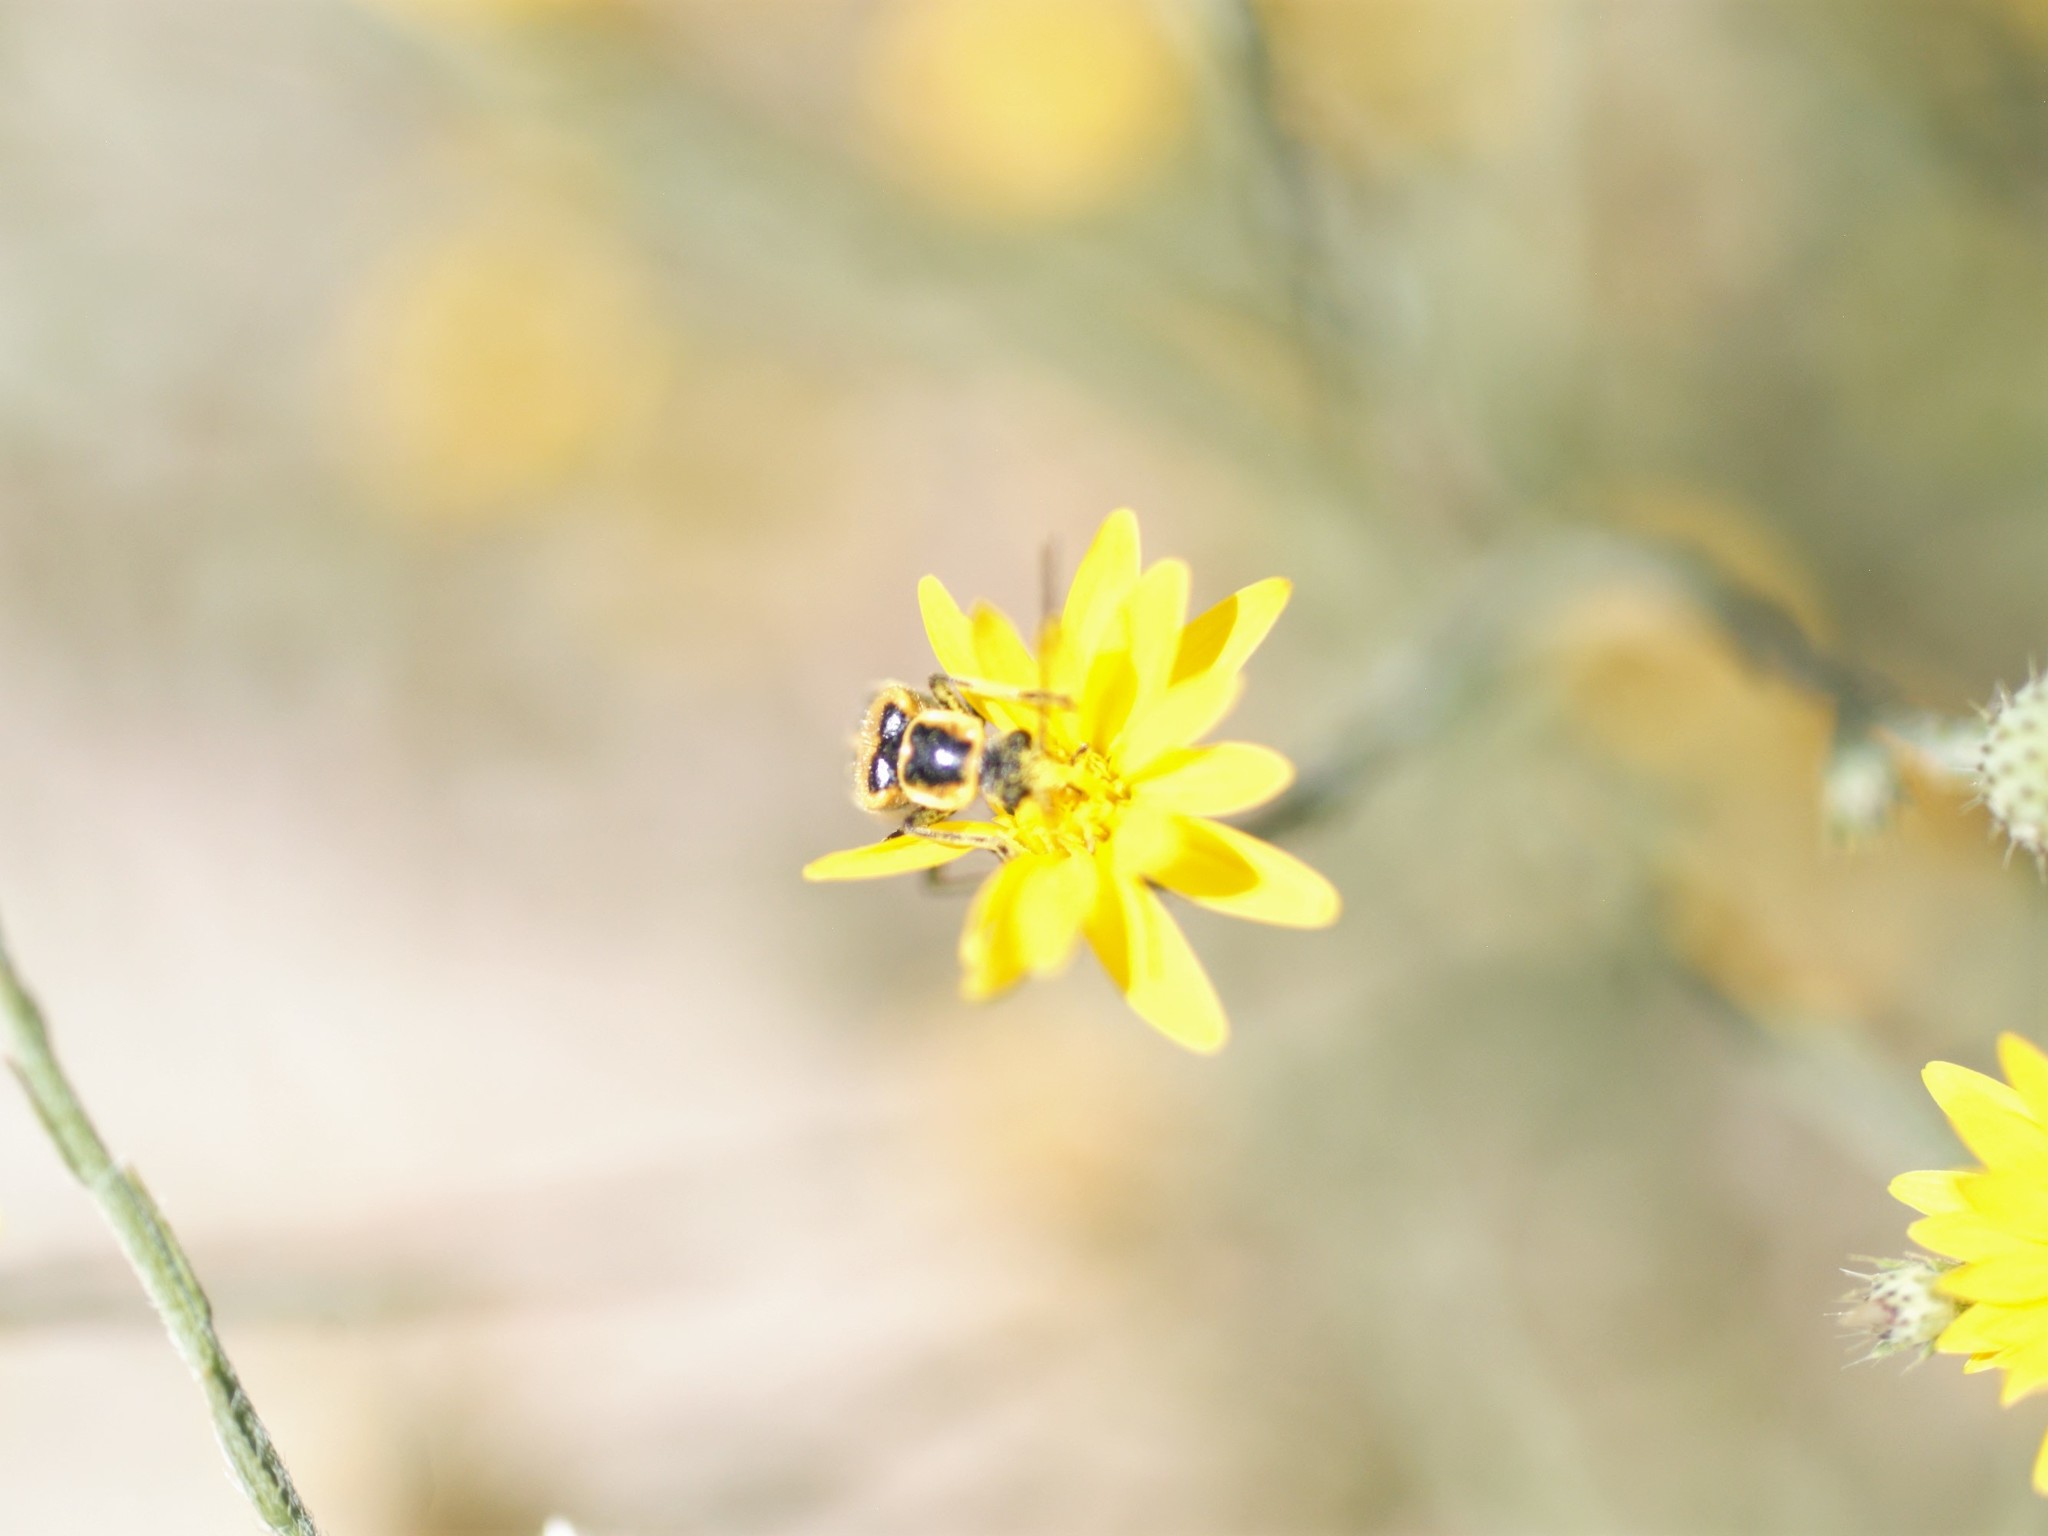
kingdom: Animalia
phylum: Arthropoda
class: Insecta
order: Coleoptera
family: Cantharidae
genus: Chauliognathus
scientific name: Chauliognathus lewisi
